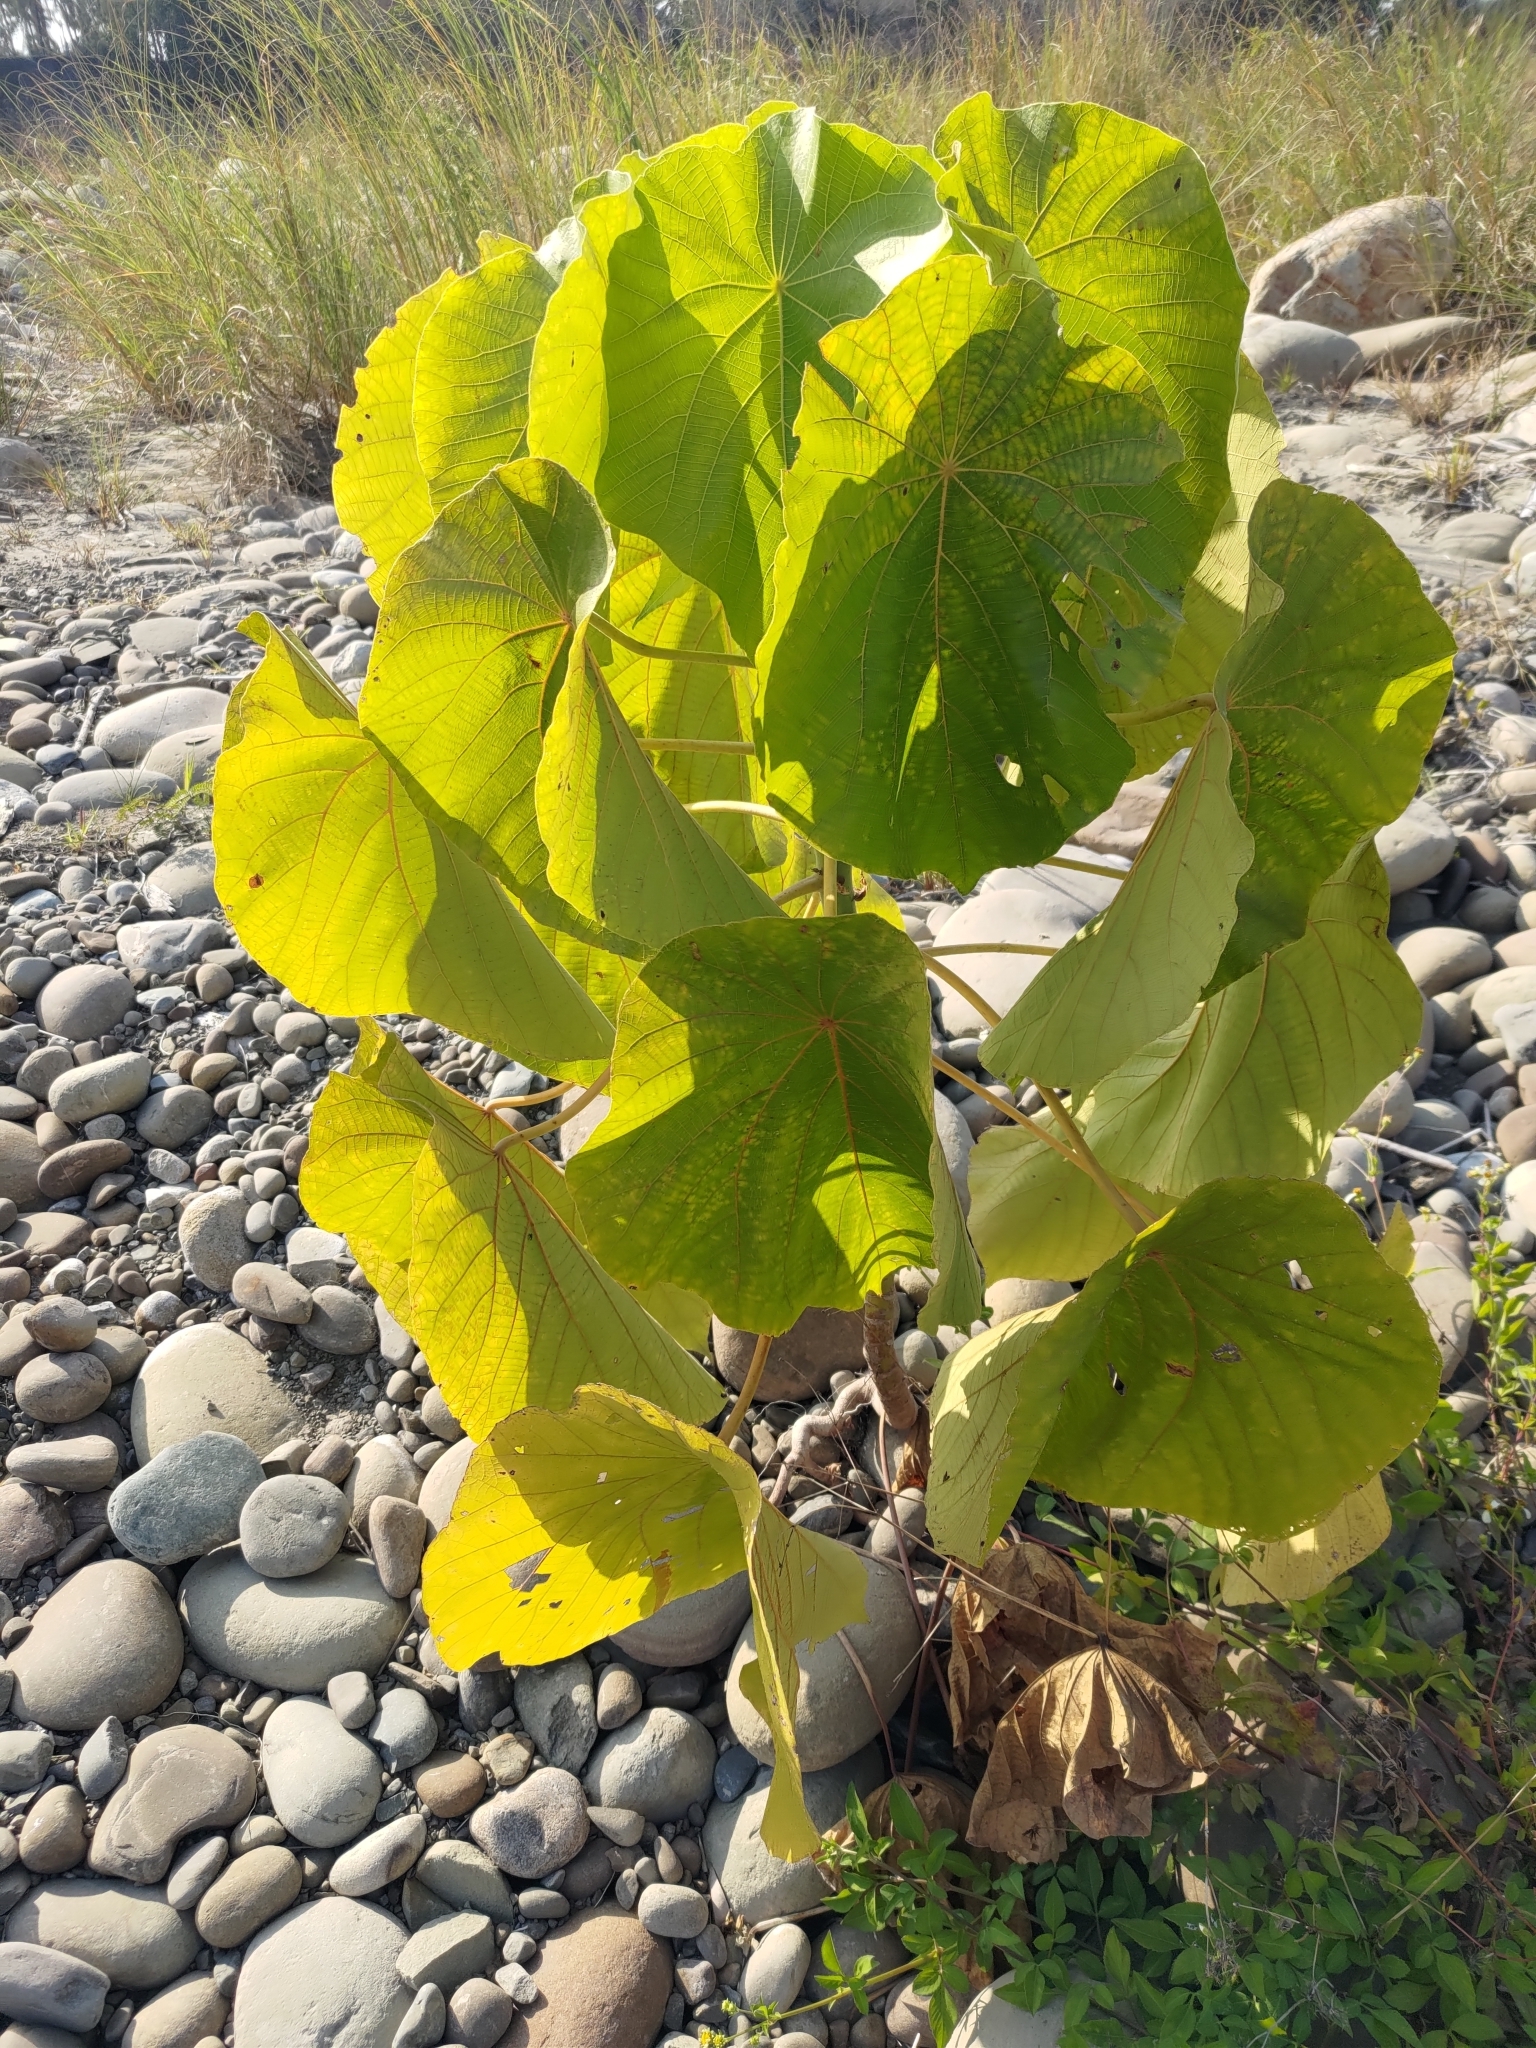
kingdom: Plantae
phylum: Tracheophyta
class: Magnoliopsida
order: Malpighiales
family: Euphorbiaceae
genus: Macaranga
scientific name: Macaranga tanarius
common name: Parasol leaf tree
